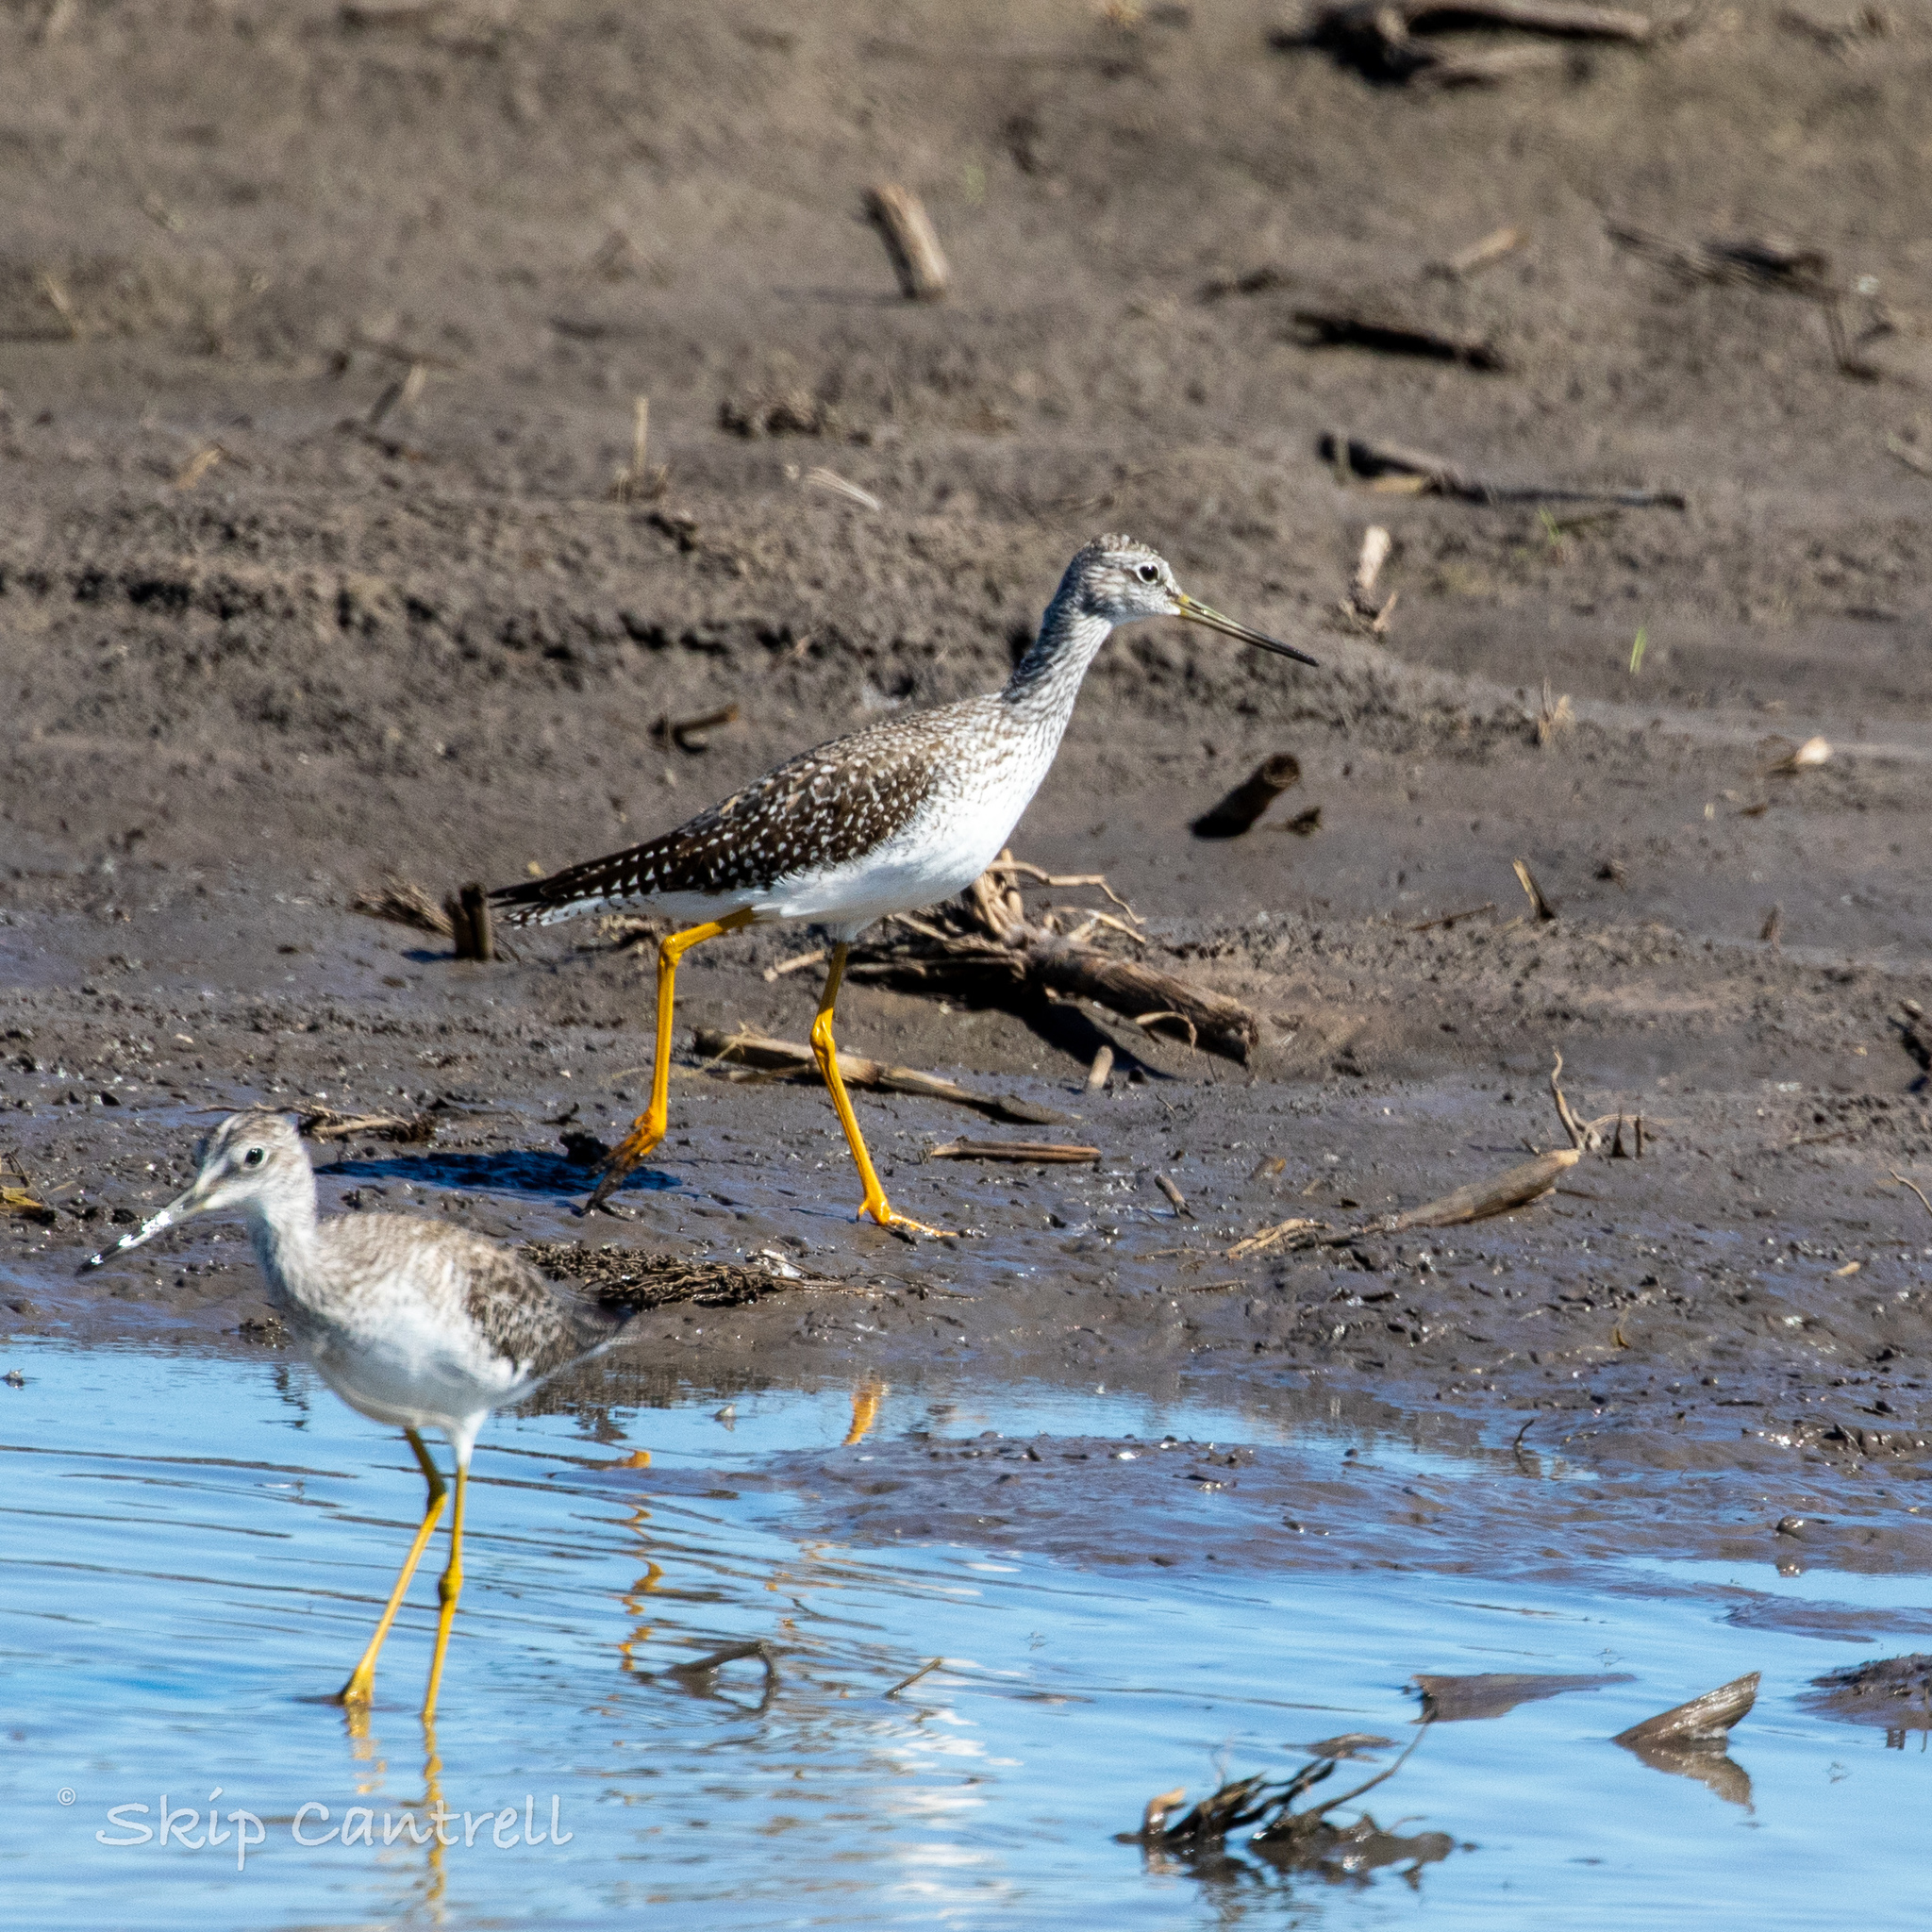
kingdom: Animalia
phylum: Chordata
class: Aves
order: Charadriiformes
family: Scolopacidae
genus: Tringa
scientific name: Tringa melanoleuca
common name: Greater yellowlegs
